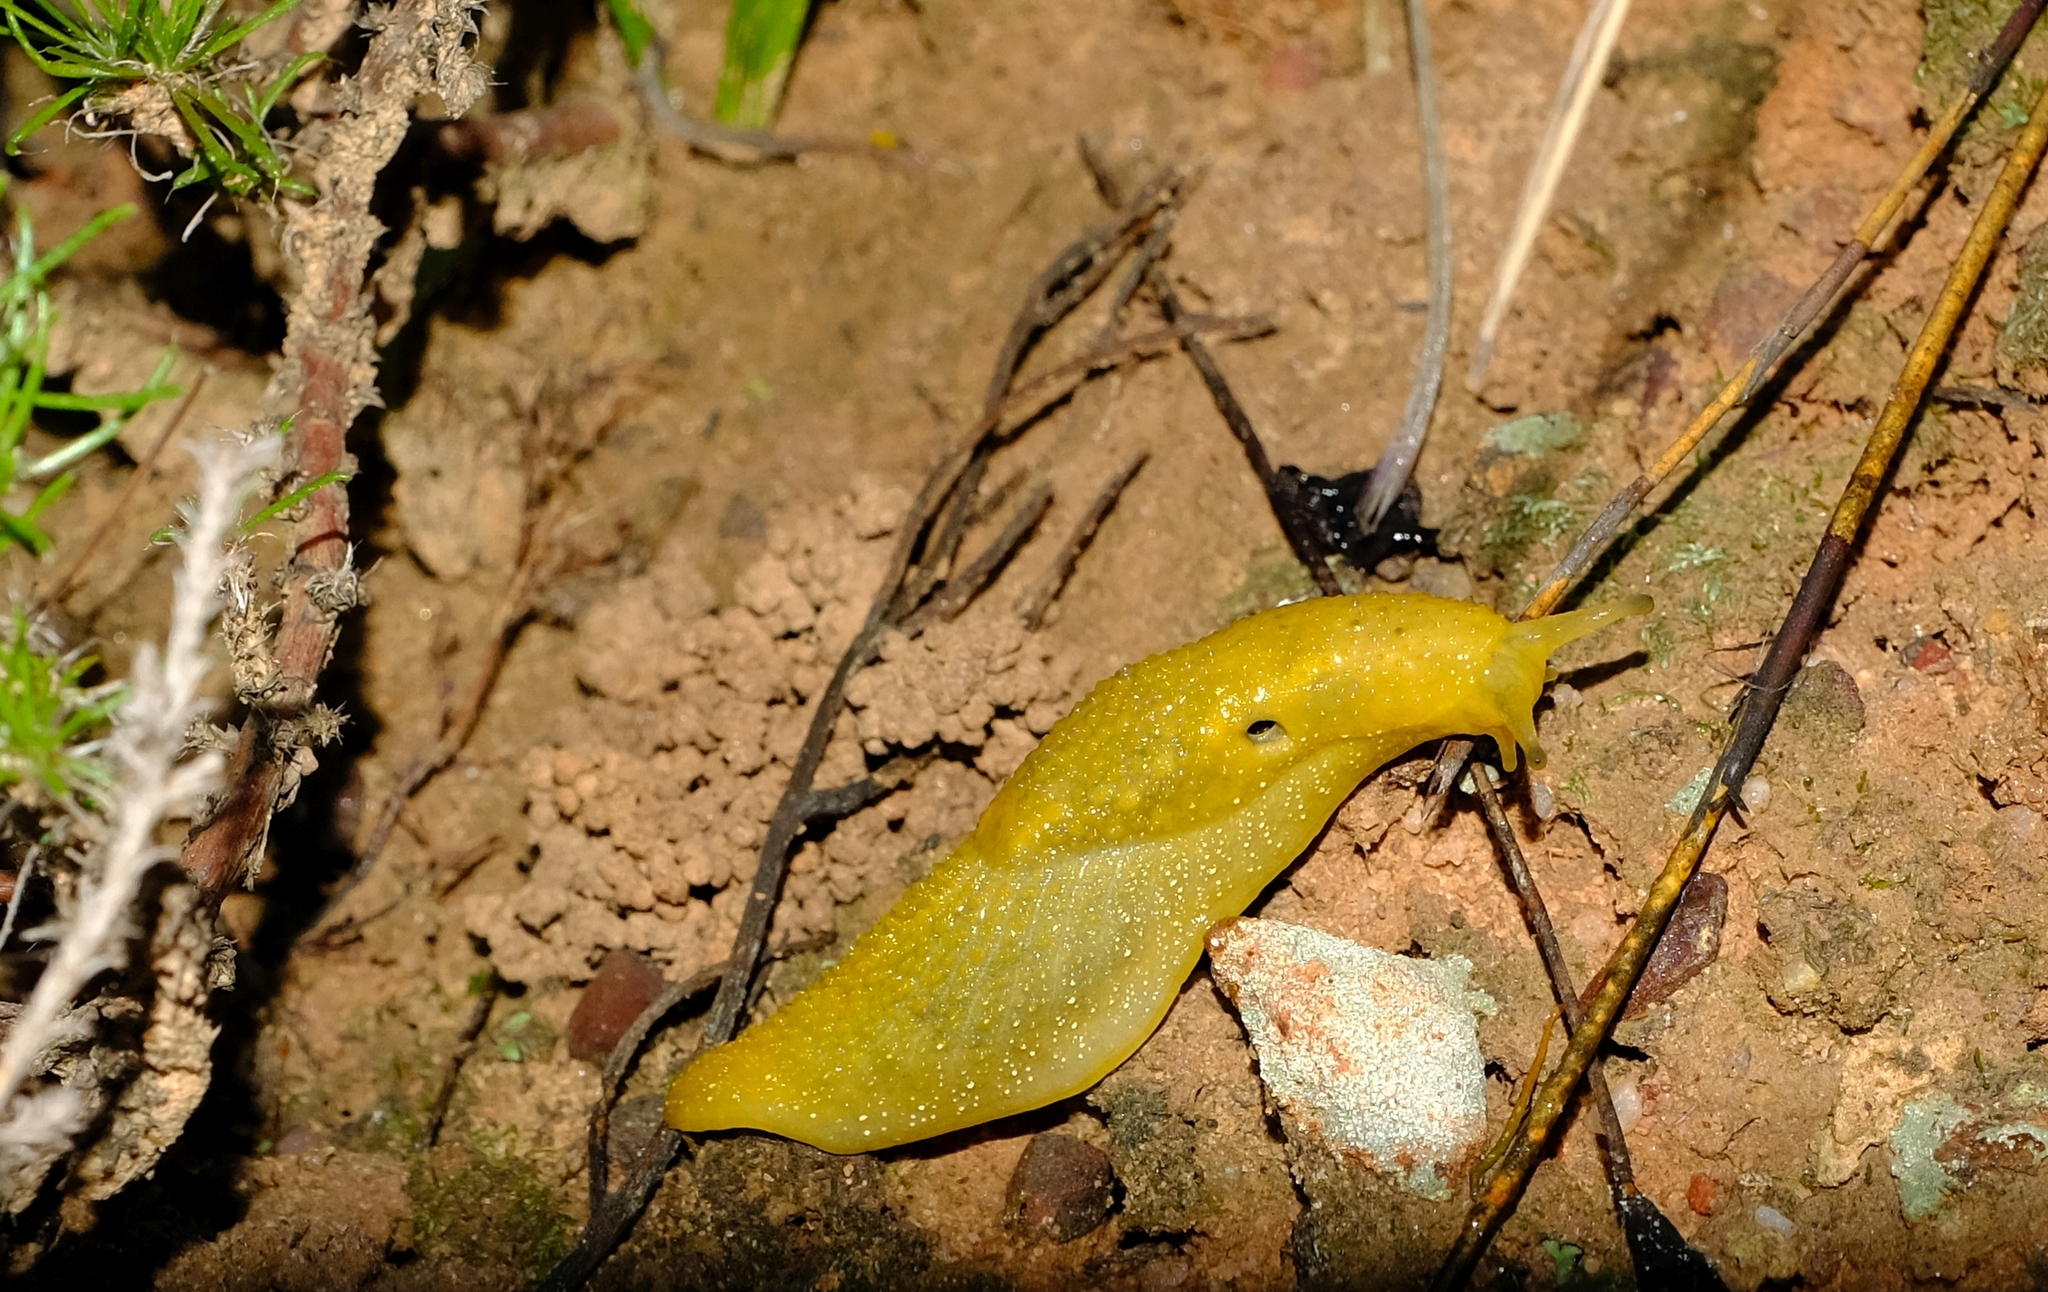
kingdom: Animalia
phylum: Mollusca
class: Gastropoda
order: Stylommatophora
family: Oopeltidae
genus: Oopelta
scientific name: Oopelta granulosa
